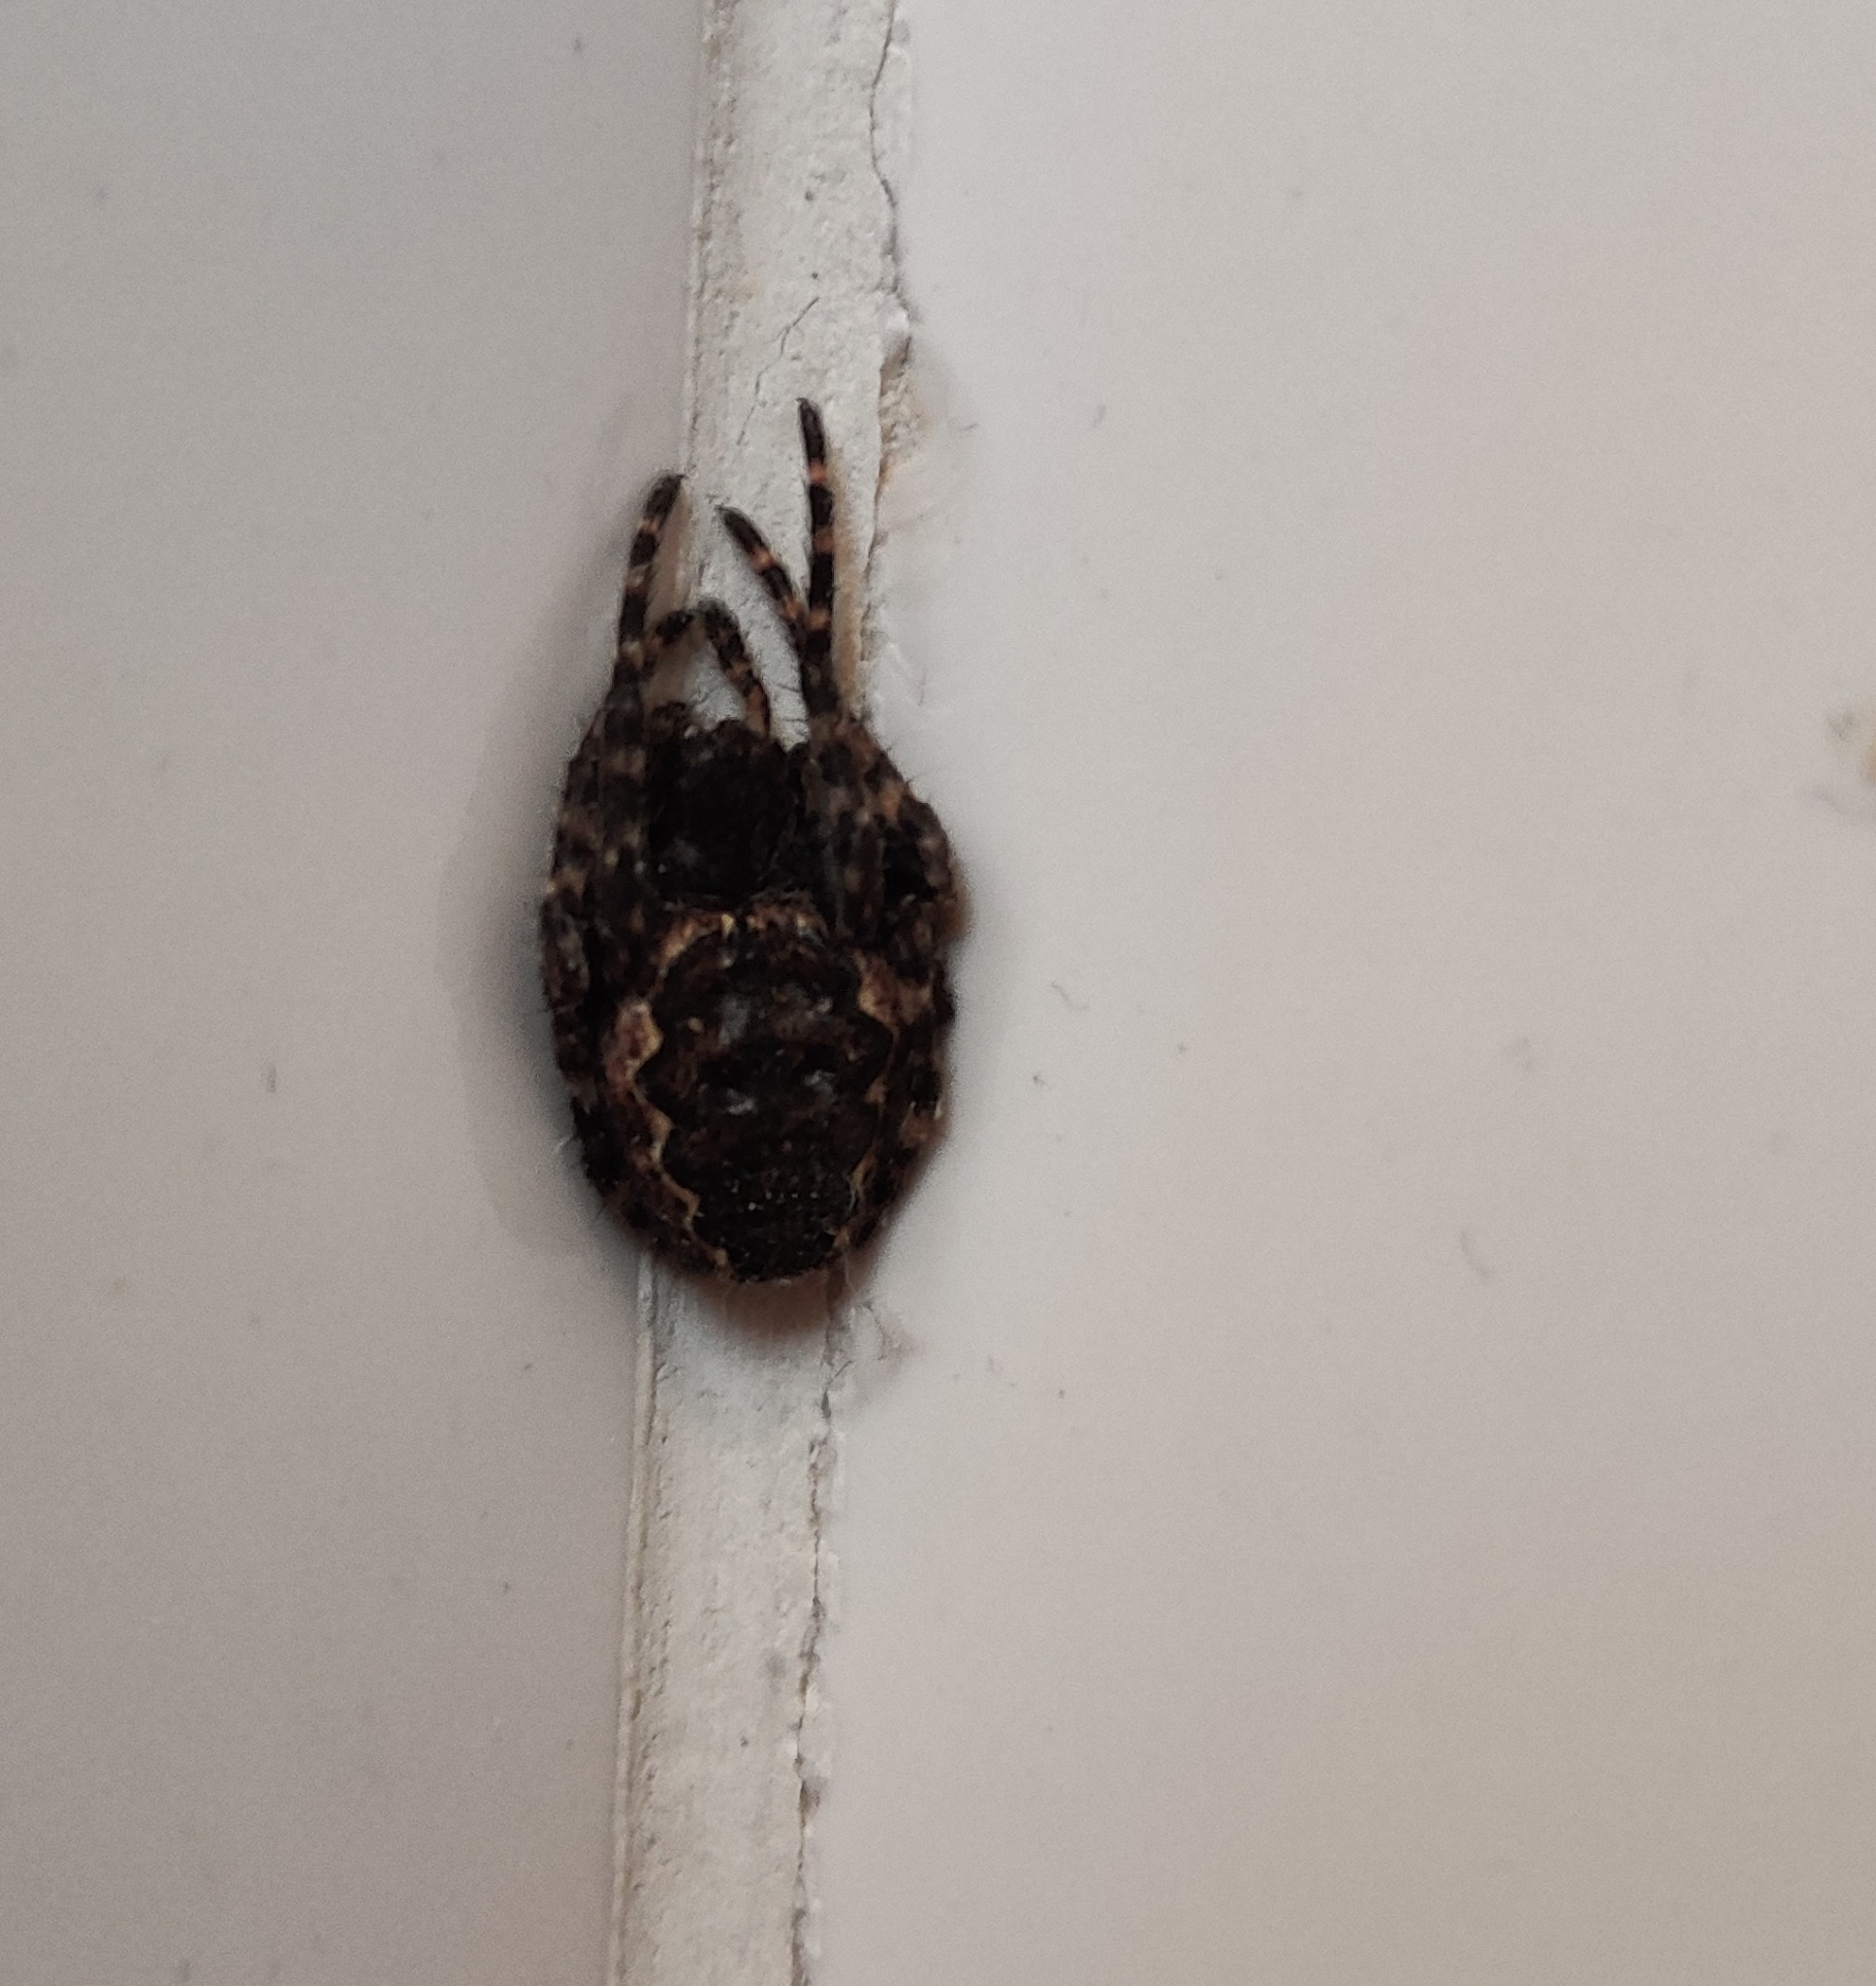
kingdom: Animalia
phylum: Arthropoda
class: Arachnida
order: Araneae
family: Araneidae
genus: Nuctenea
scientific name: Nuctenea umbratica
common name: Toad spider
